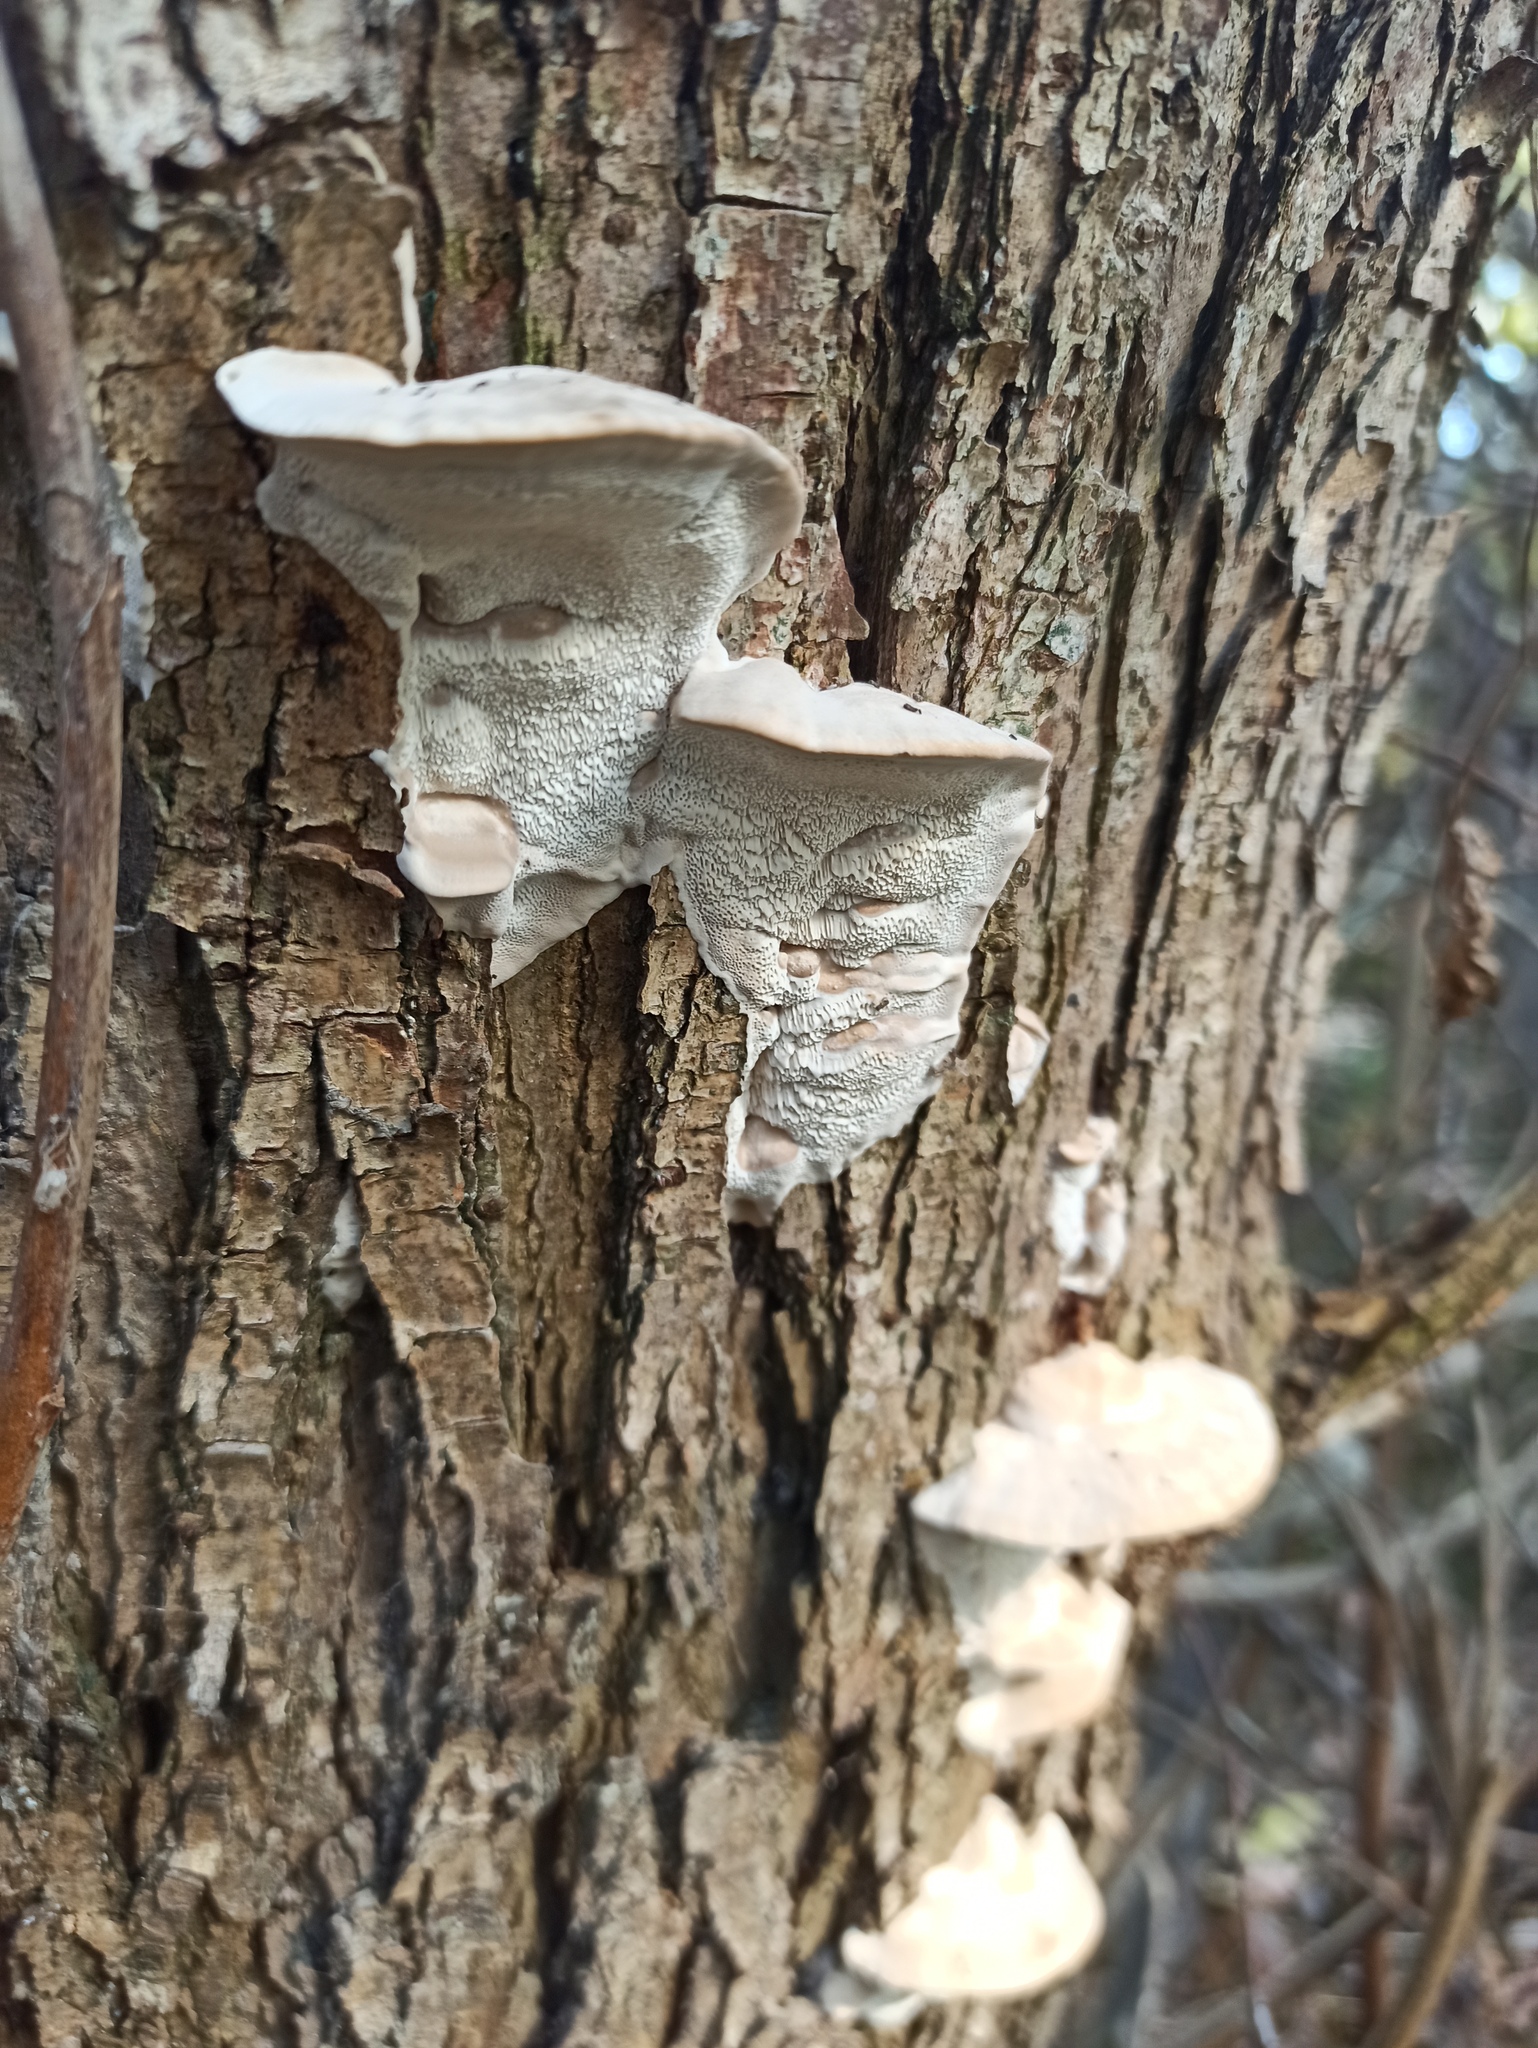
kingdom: Fungi
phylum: Basidiomycota
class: Agaricomycetes
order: Polyporales
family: Polyporaceae
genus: Trametes
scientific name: Trametes suaveolens
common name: Fragrant bracket
